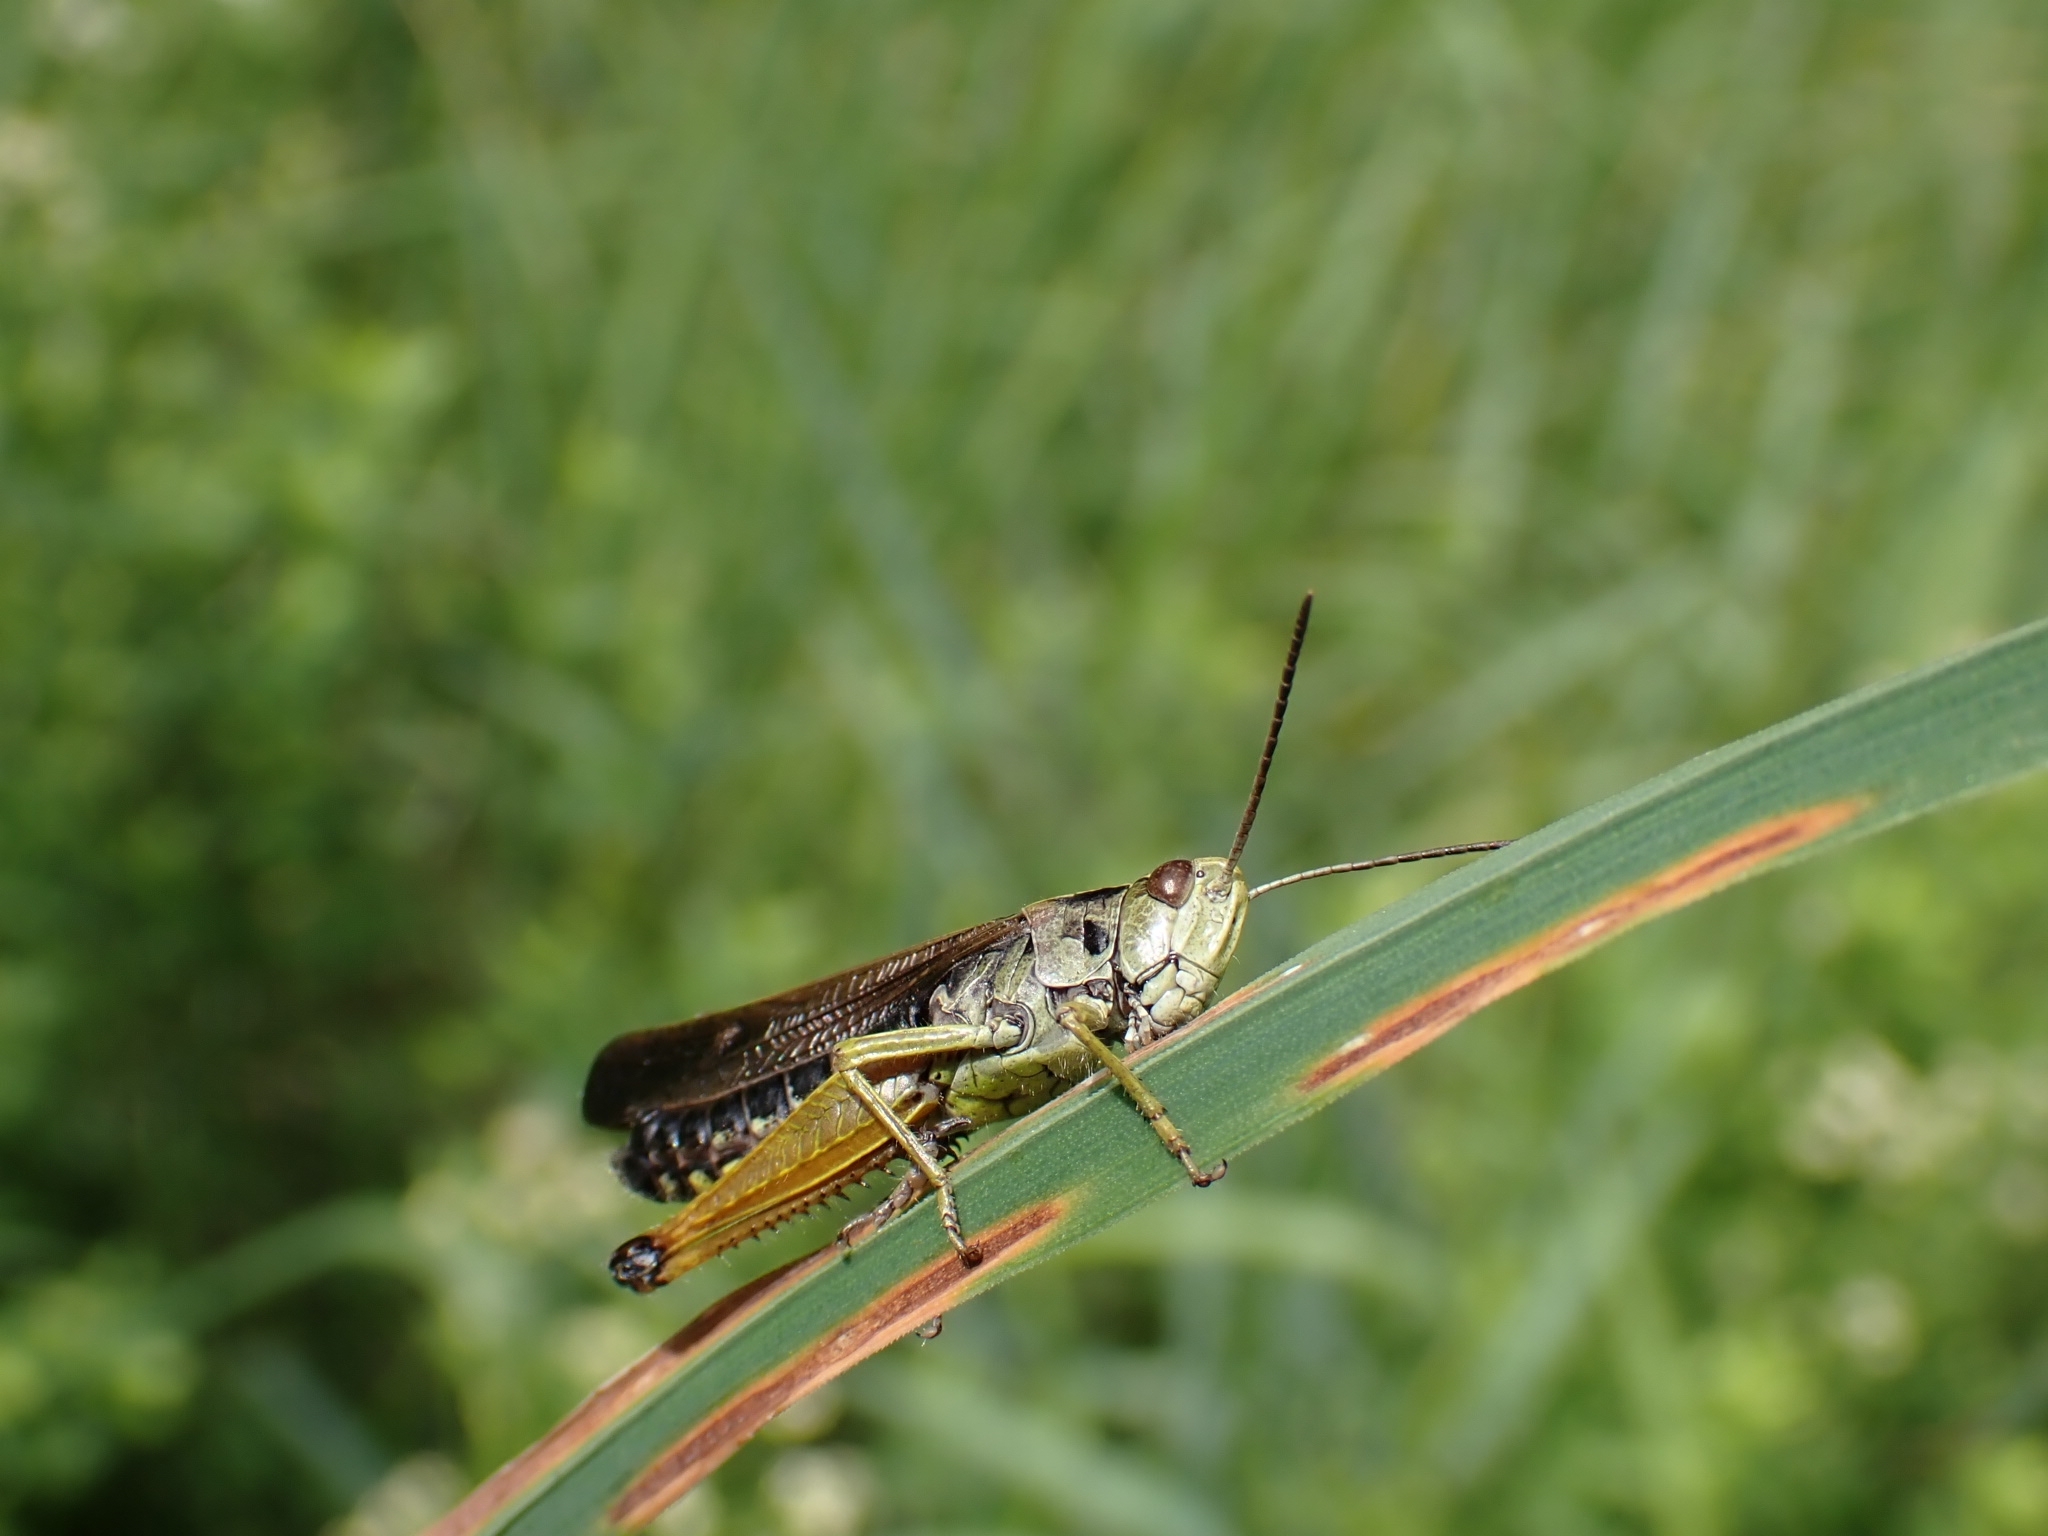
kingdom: Animalia
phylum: Arthropoda
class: Insecta
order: Orthoptera
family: Acrididae
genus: Omocestus
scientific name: Omocestus viridulus
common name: Common green grasshopper
